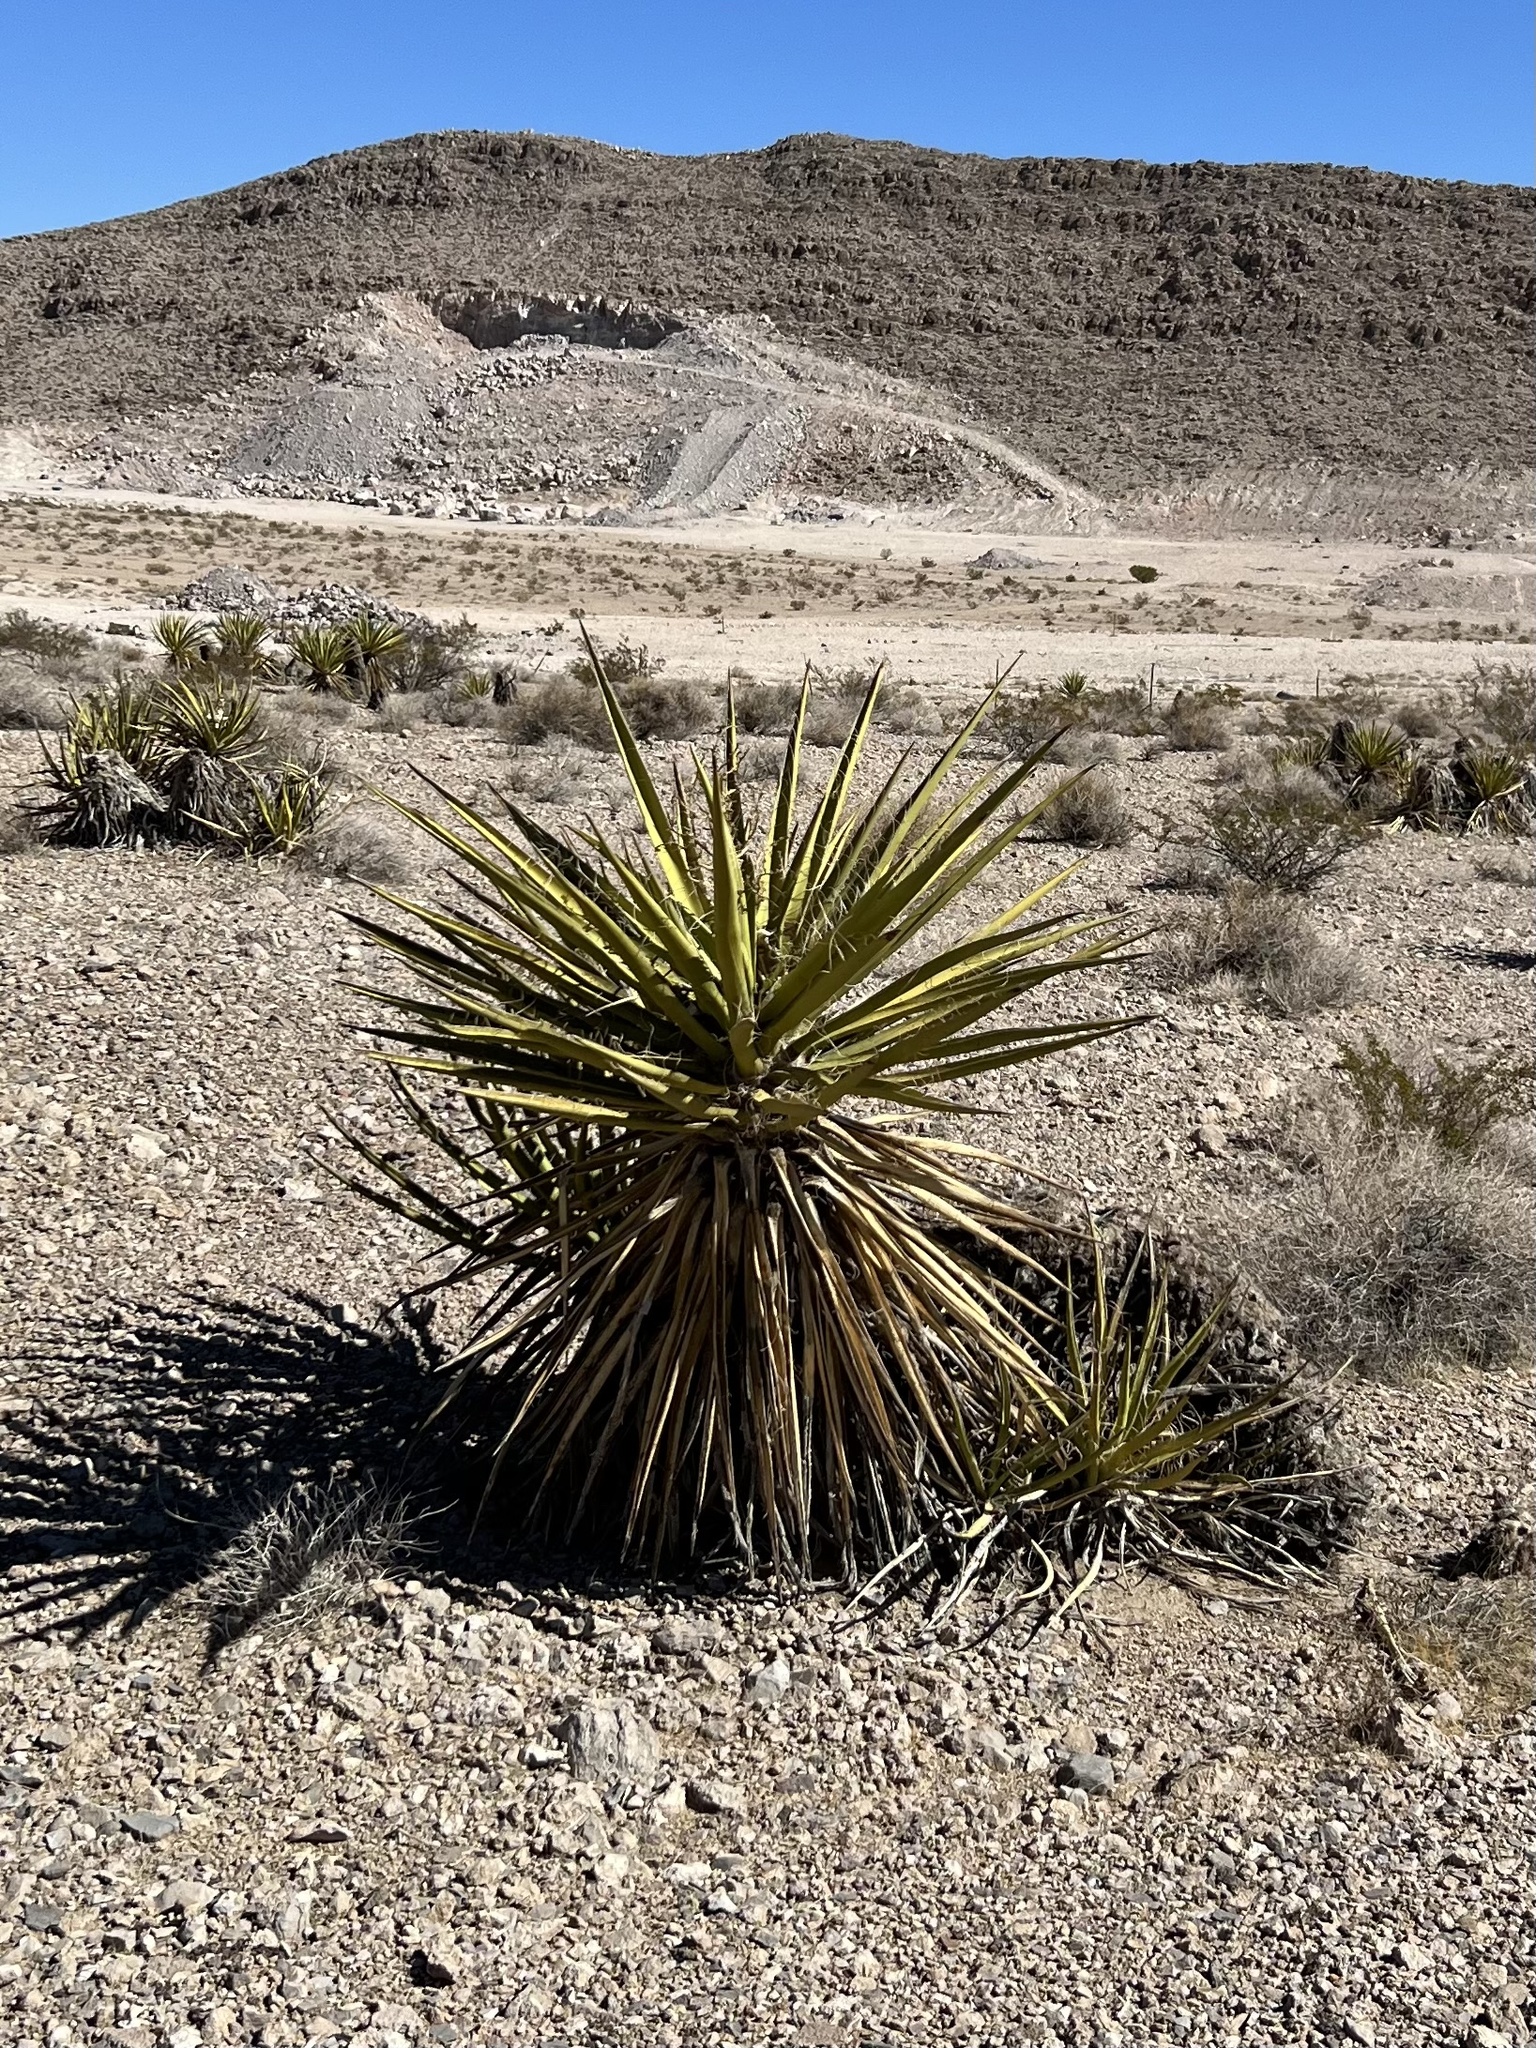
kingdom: Plantae
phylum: Tracheophyta
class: Liliopsida
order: Asparagales
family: Asparagaceae
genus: Yucca
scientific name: Yucca schidigera
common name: Mojave yucca
